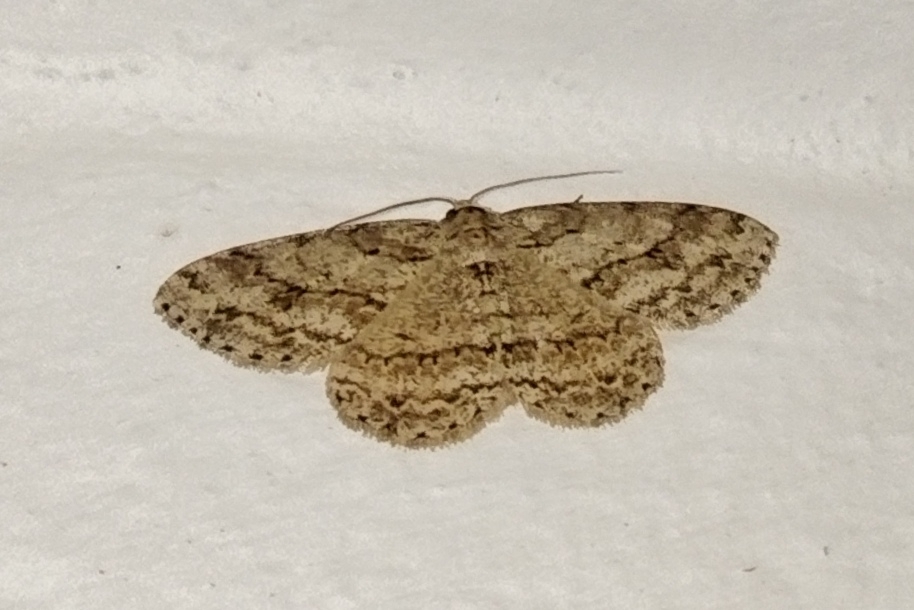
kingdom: Animalia
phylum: Arthropoda
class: Insecta
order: Lepidoptera
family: Geometridae
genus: Ectropis
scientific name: Ectropis crepuscularia
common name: Engrailed
